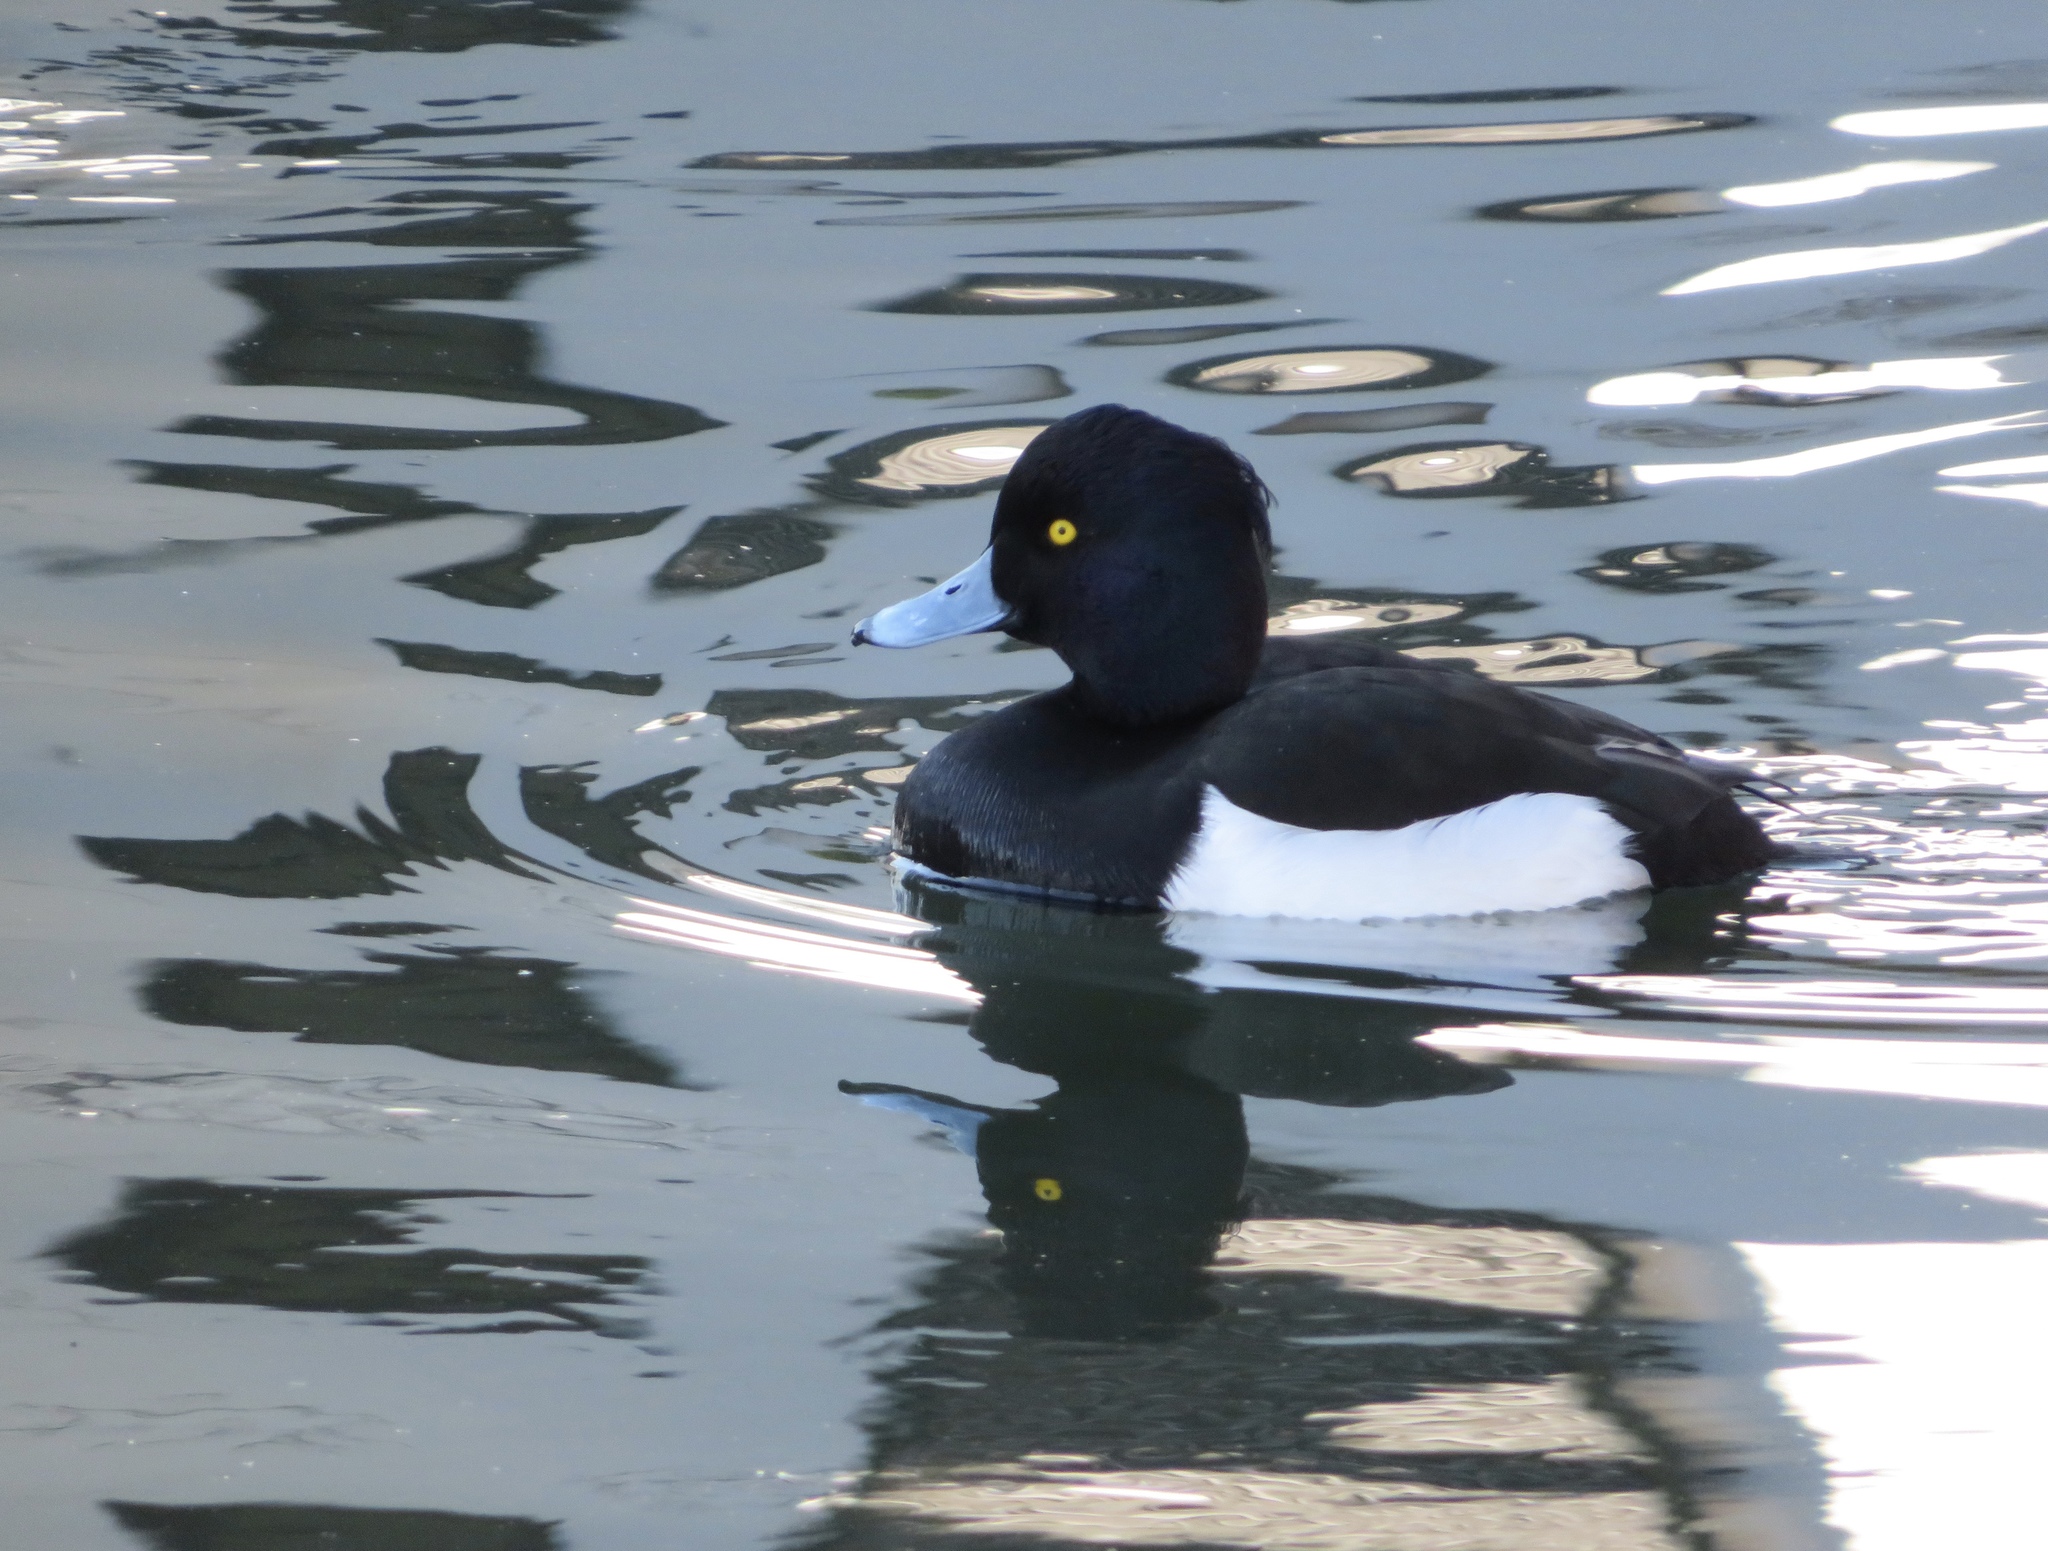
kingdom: Animalia
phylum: Chordata
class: Aves
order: Anseriformes
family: Anatidae
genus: Aythya
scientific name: Aythya fuligula
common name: Tufted duck
